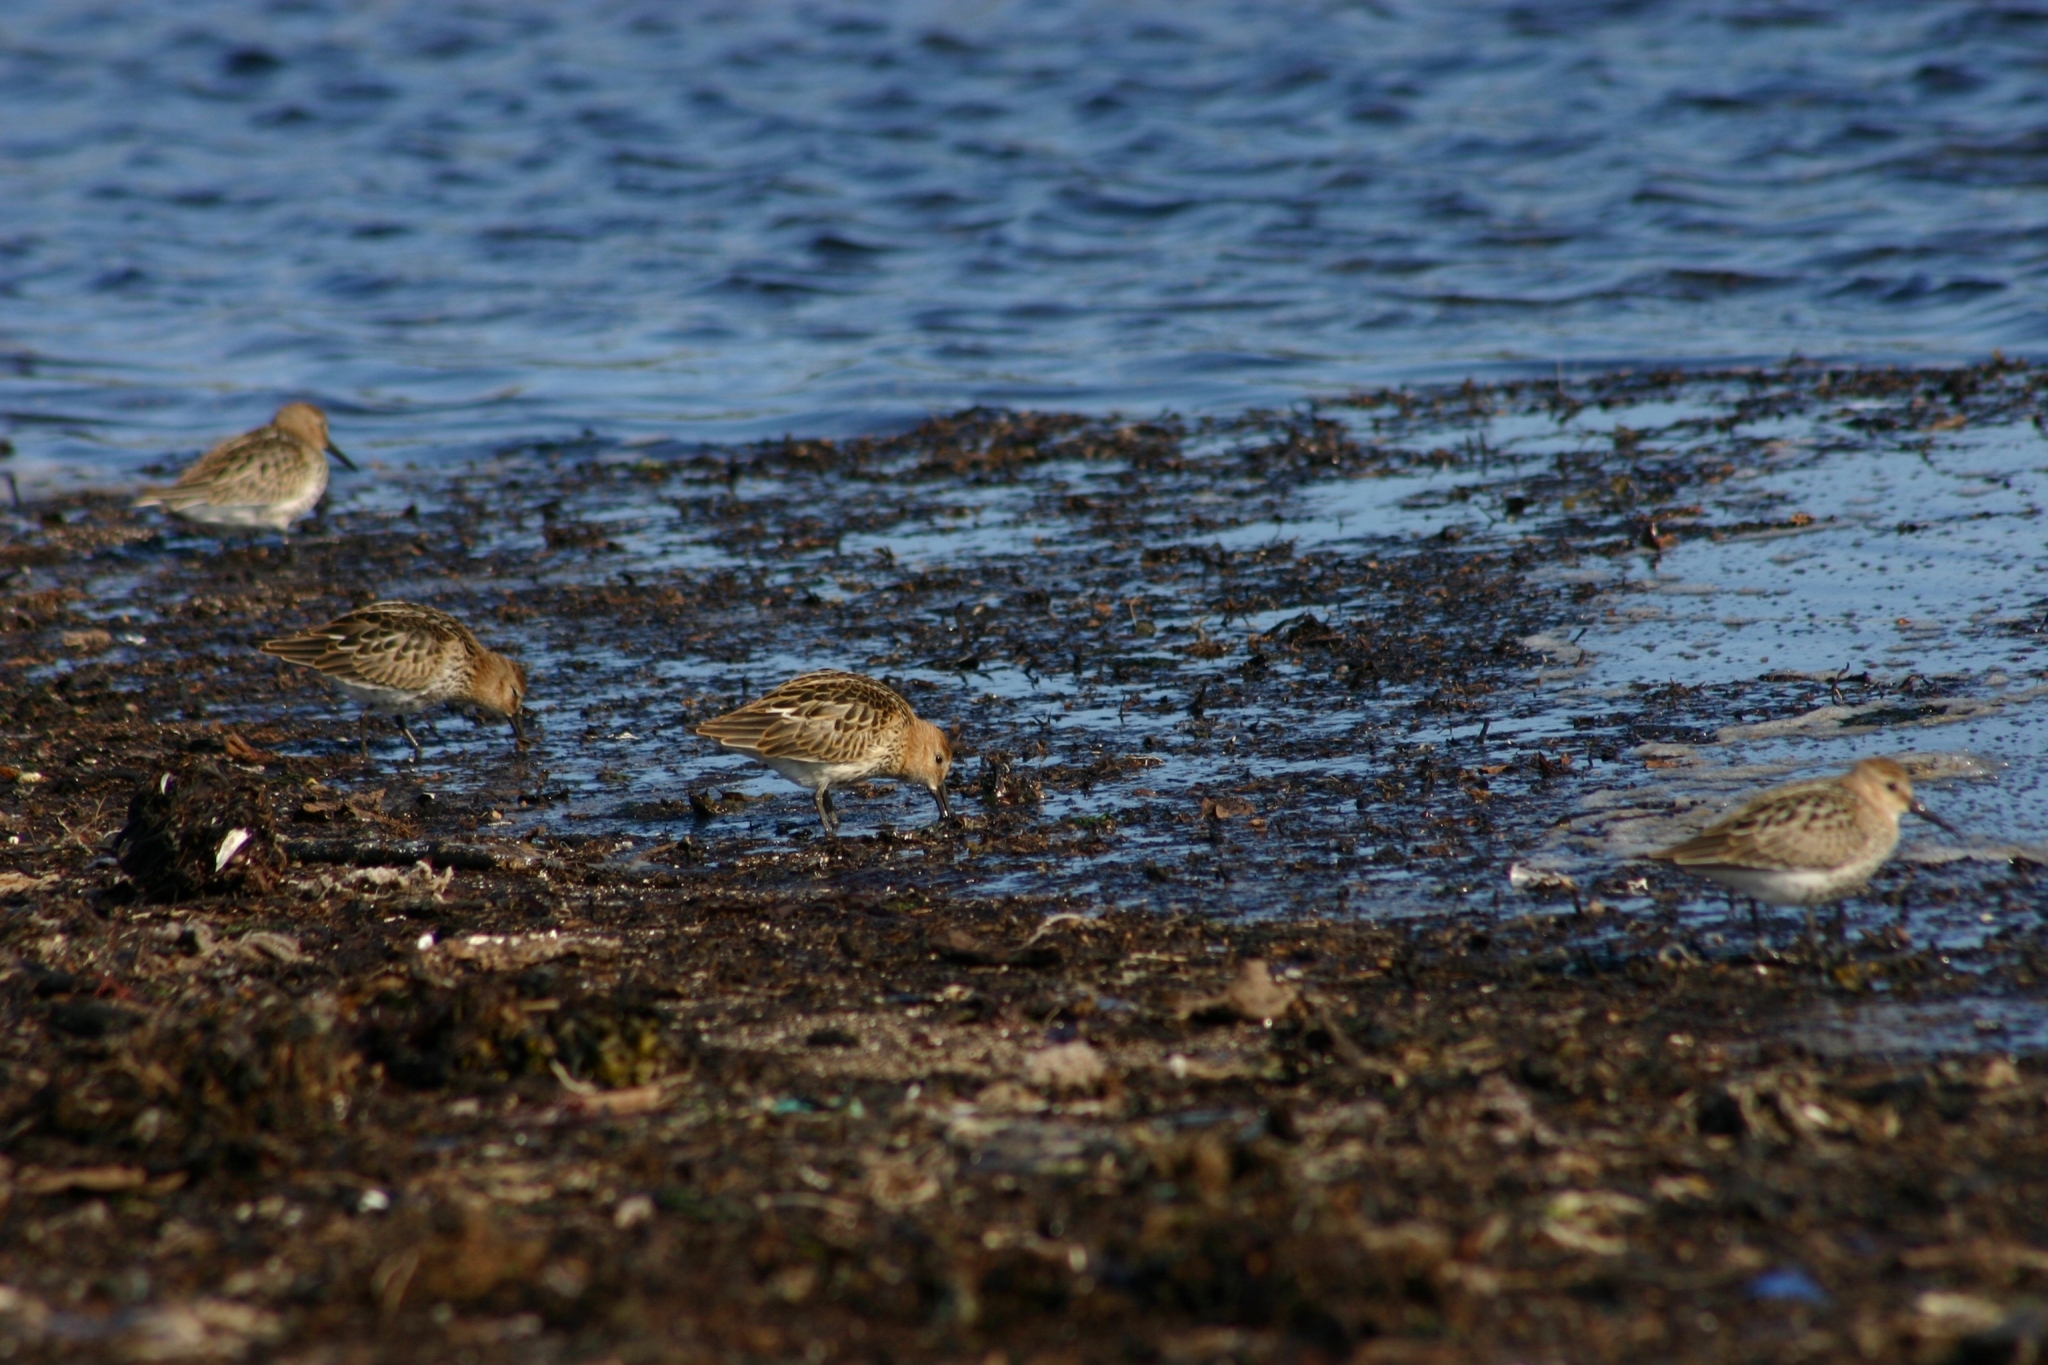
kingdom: Animalia
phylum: Chordata
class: Aves
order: Charadriiformes
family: Scolopacidae
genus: Calidris
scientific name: Calidris alpina
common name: Dunlin
